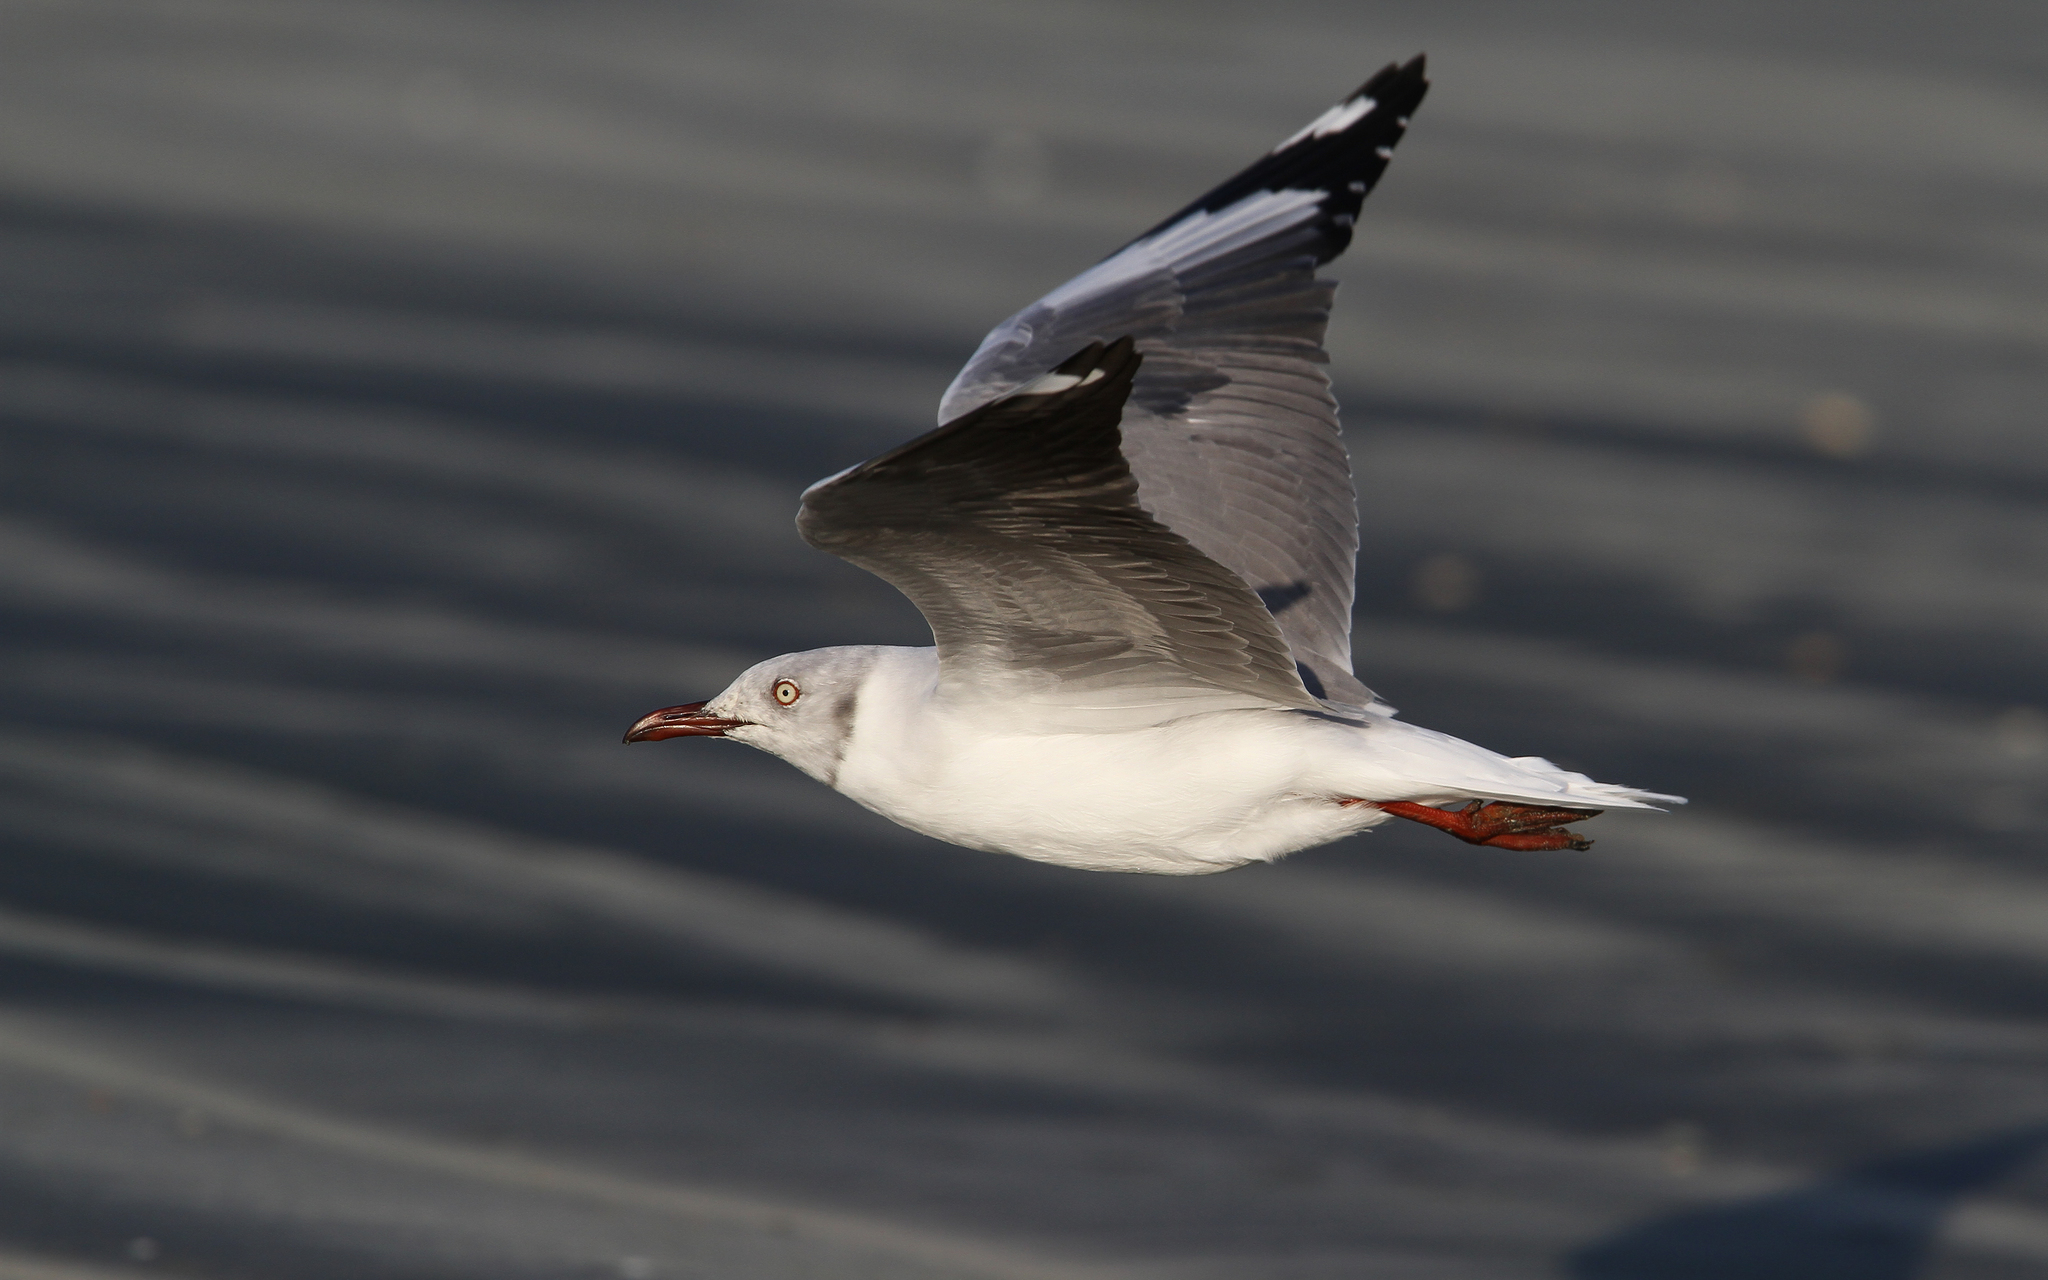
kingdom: Animalia
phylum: Chordata
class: Aves
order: Charadriiformes
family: Laridae
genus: Chroicocephalus
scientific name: Chroicocephalus cirrocephalus
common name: Grey-headed gull
